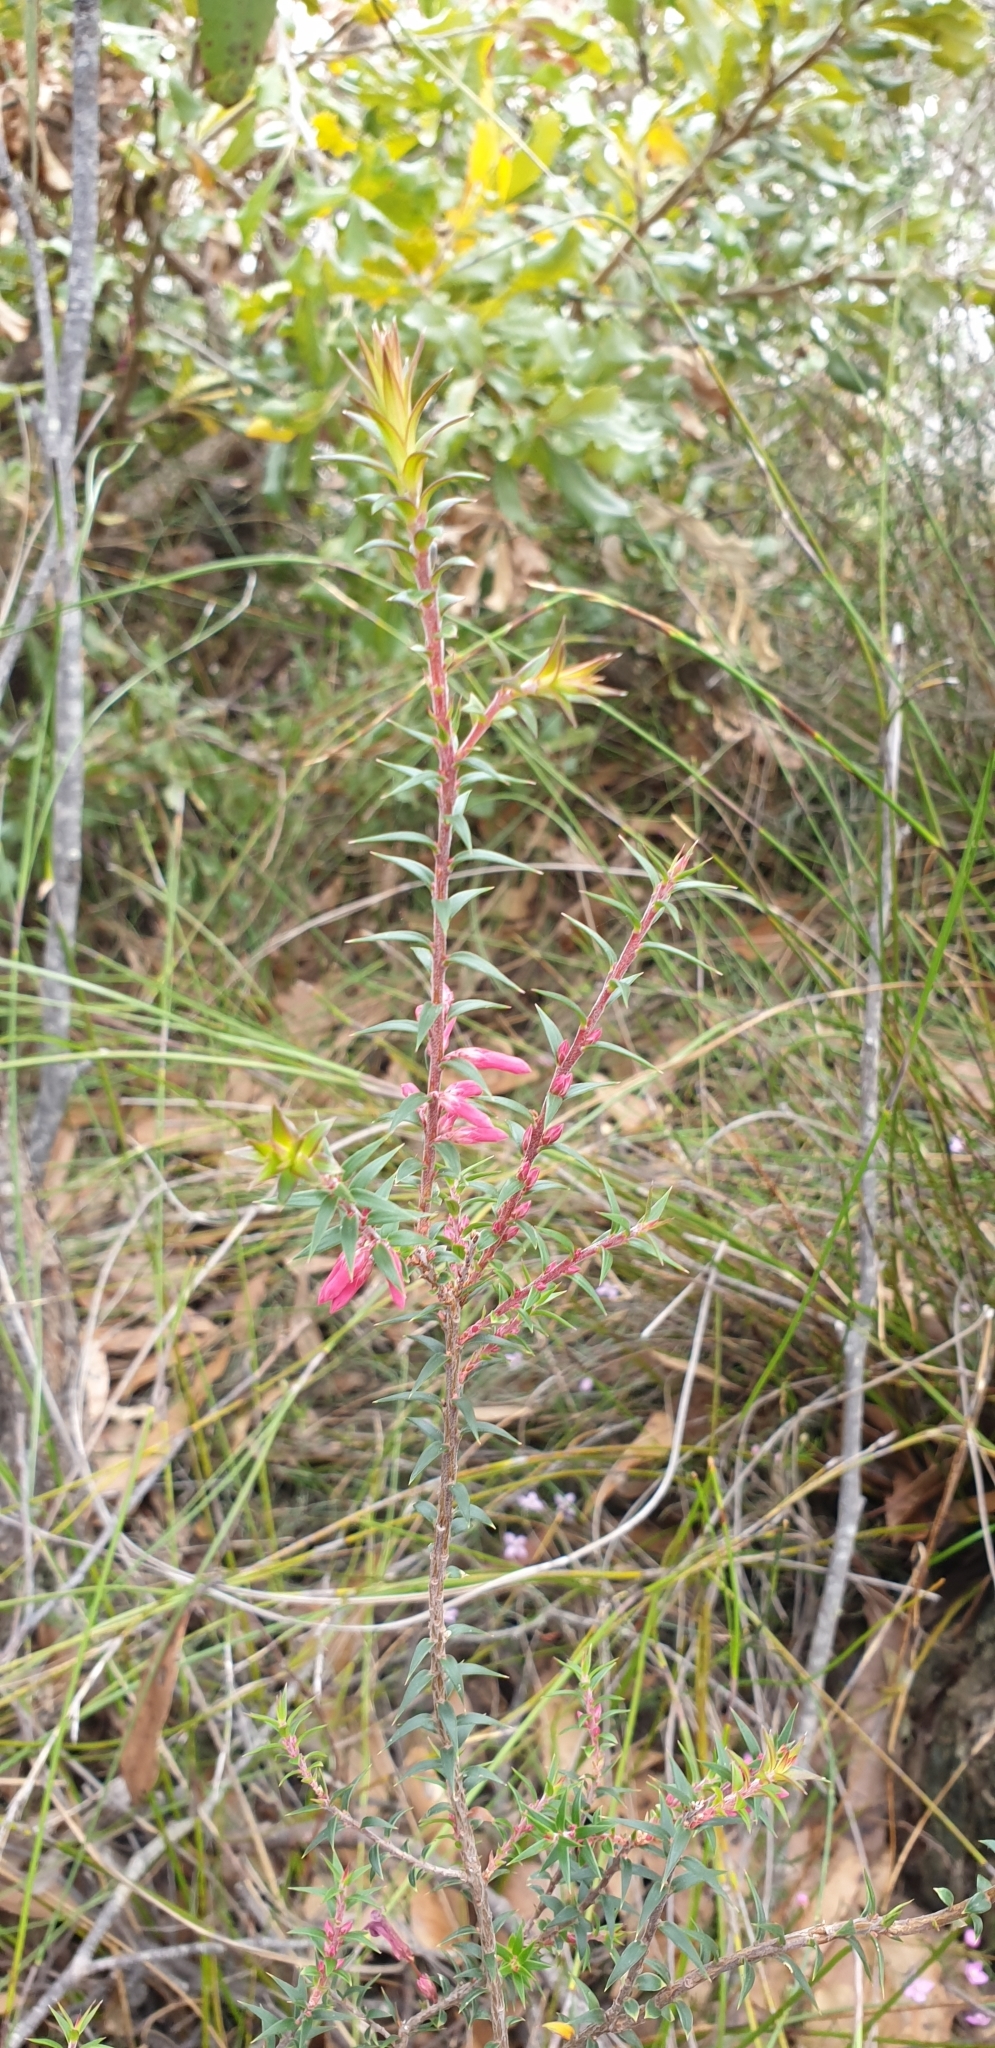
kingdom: Plantae
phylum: Tracheophyta
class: Magnoliopsida
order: Ericales
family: Ericaceae
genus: Epacris
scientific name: Epacris impressa
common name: Common-heath
